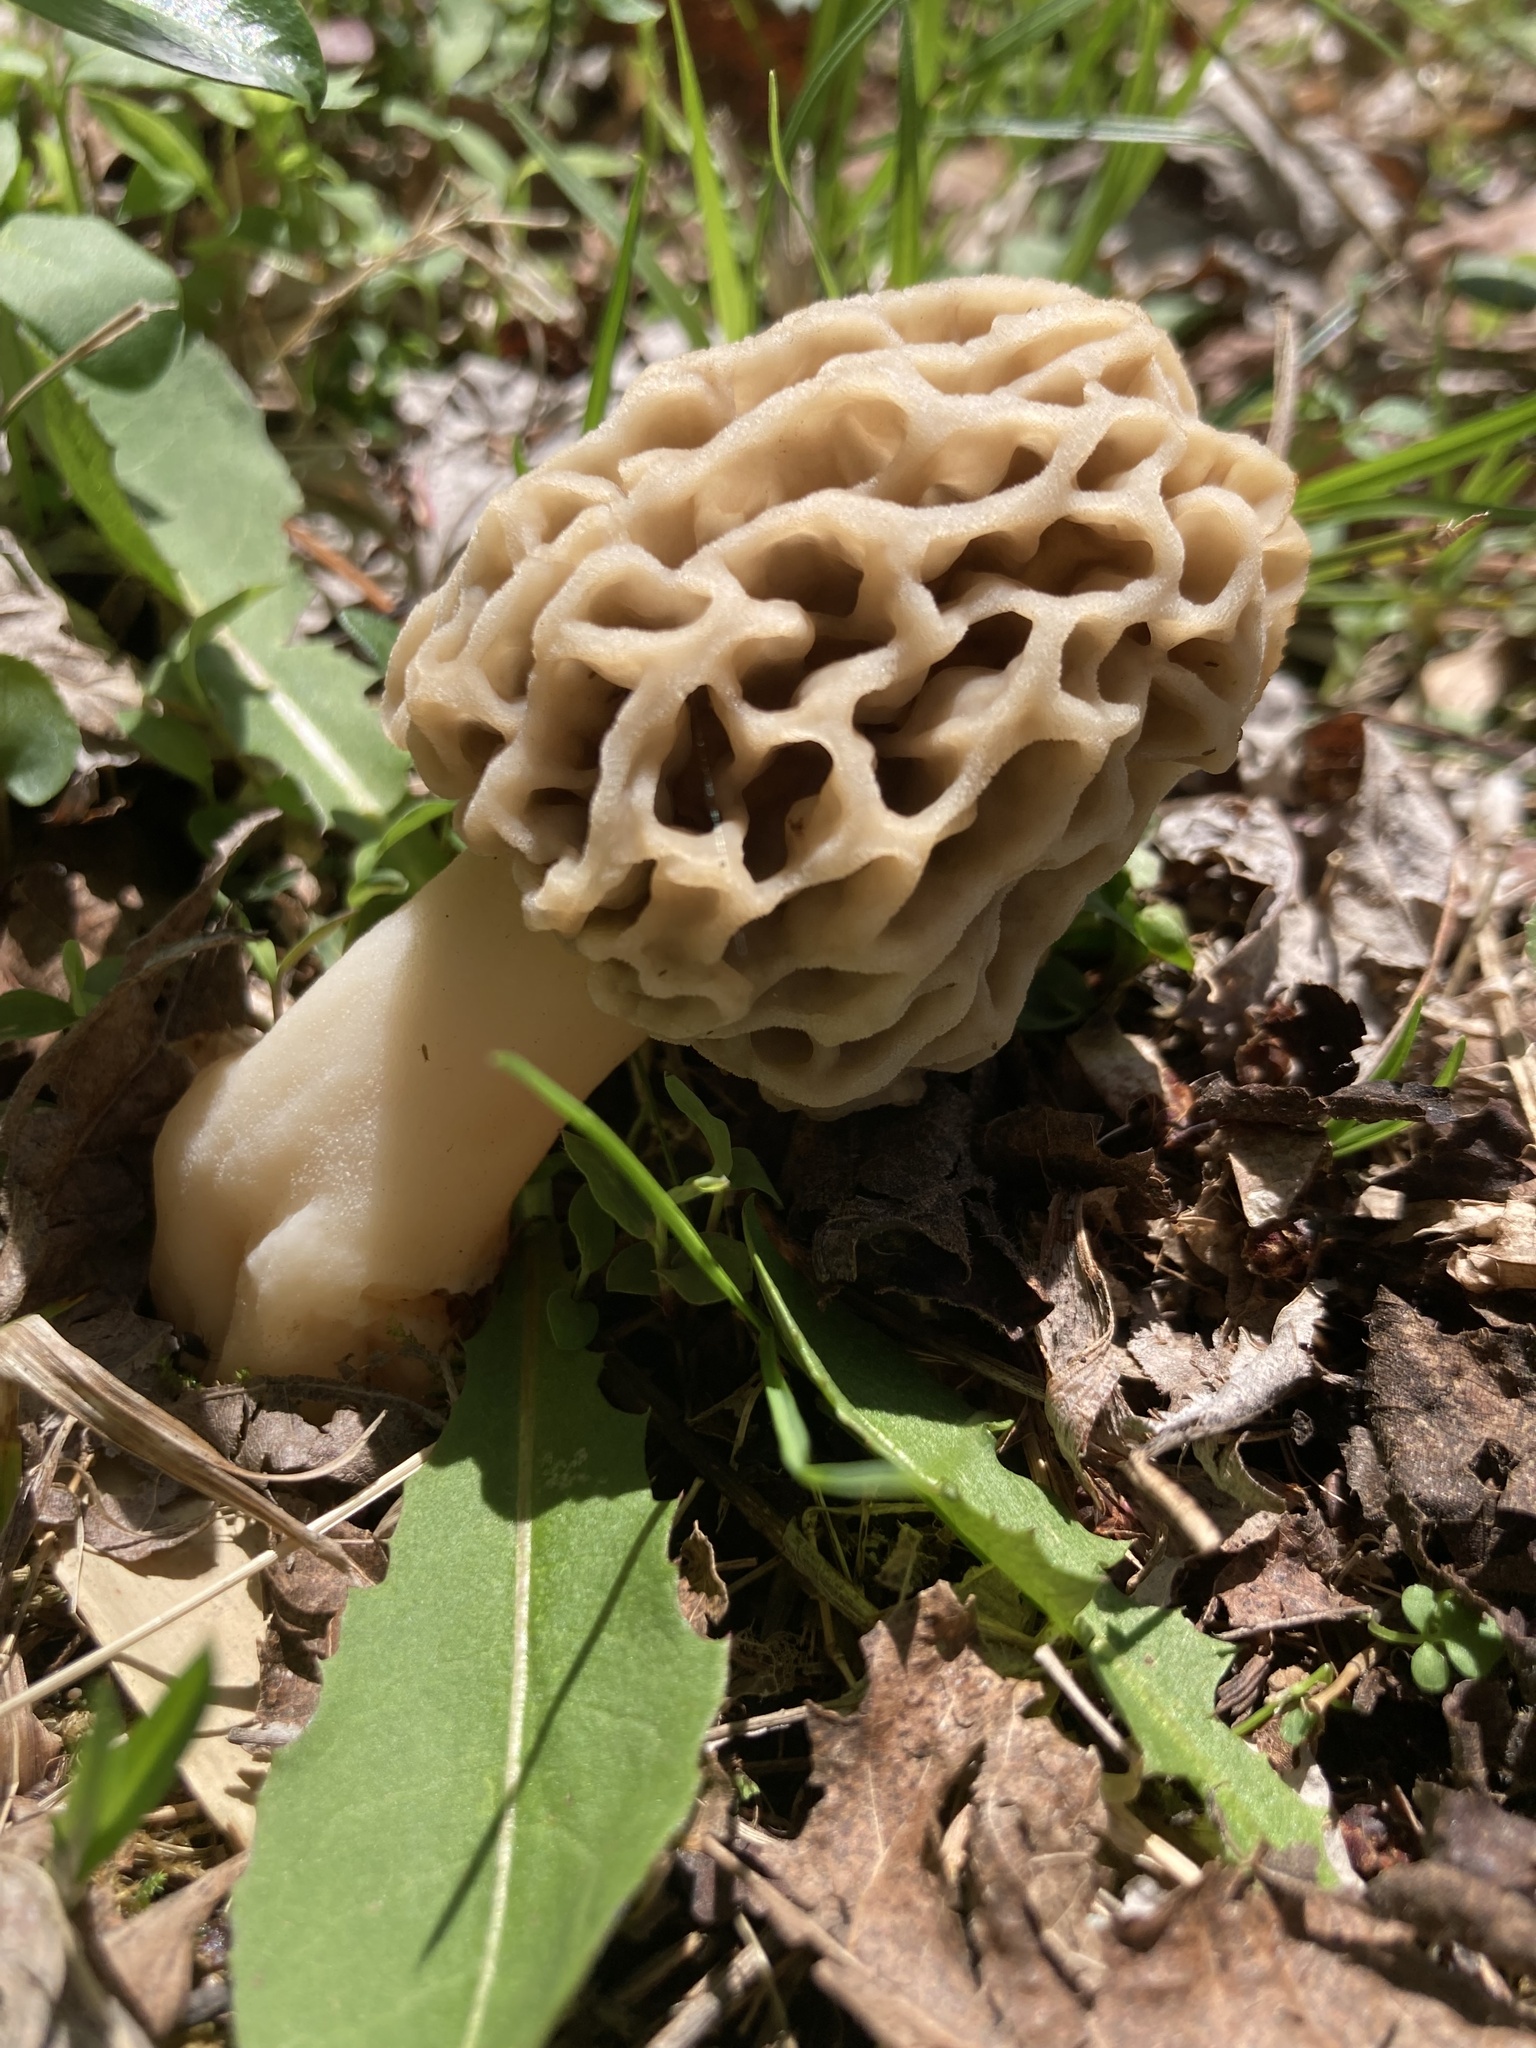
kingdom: Fungi
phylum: Ascomycota
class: Pezizomycetes
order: Pezizales
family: Morchellaceae
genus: Morchella
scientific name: Morchella americana
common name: White morel
